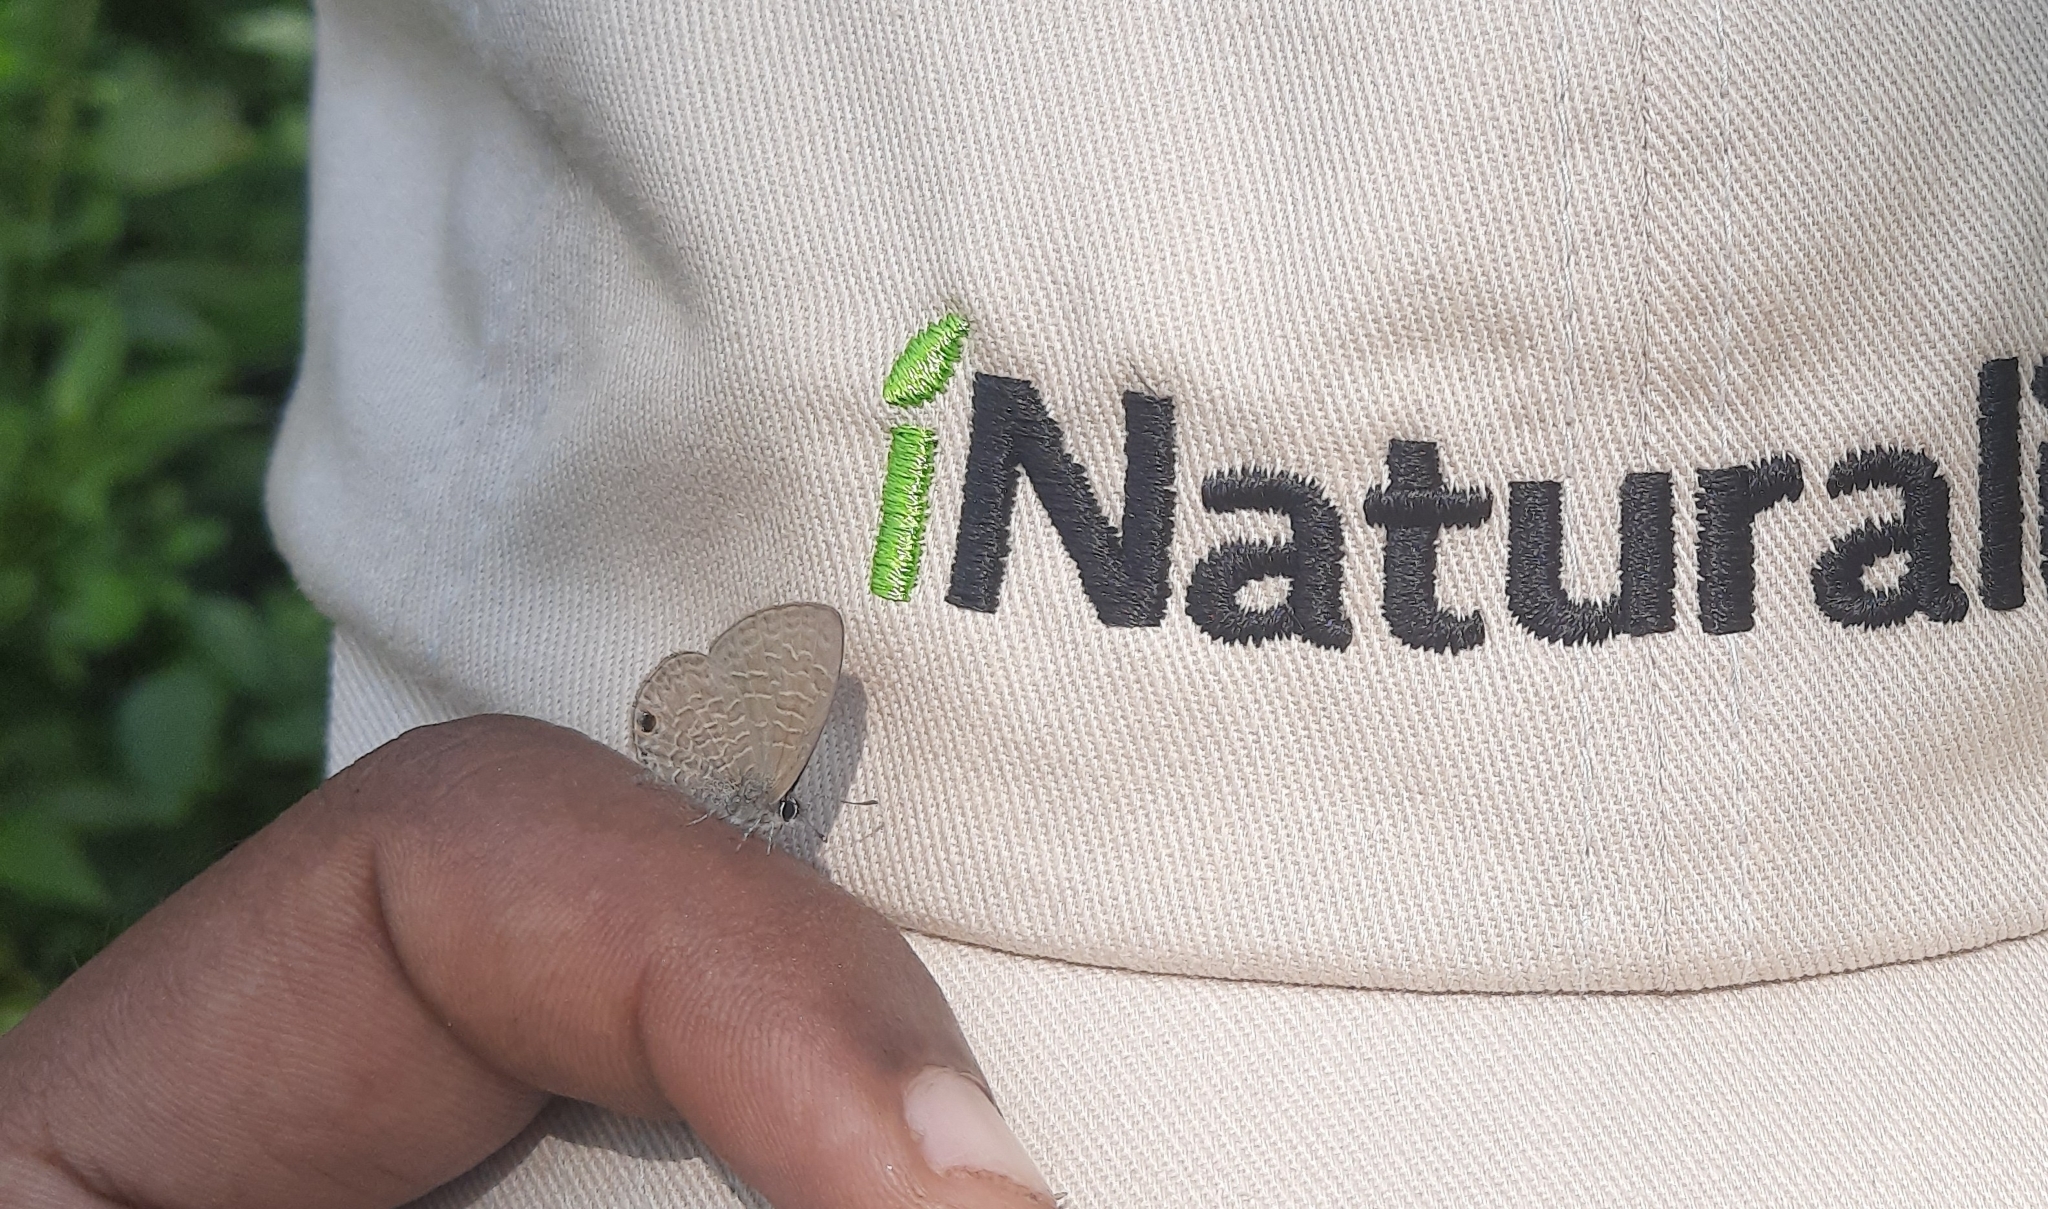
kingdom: Animalia
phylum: Arthropoda
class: Insecta
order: Lepidoptera
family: Lycaenidae
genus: Prosotas
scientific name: Prosotas dubiosa
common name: Tailless lineblue
